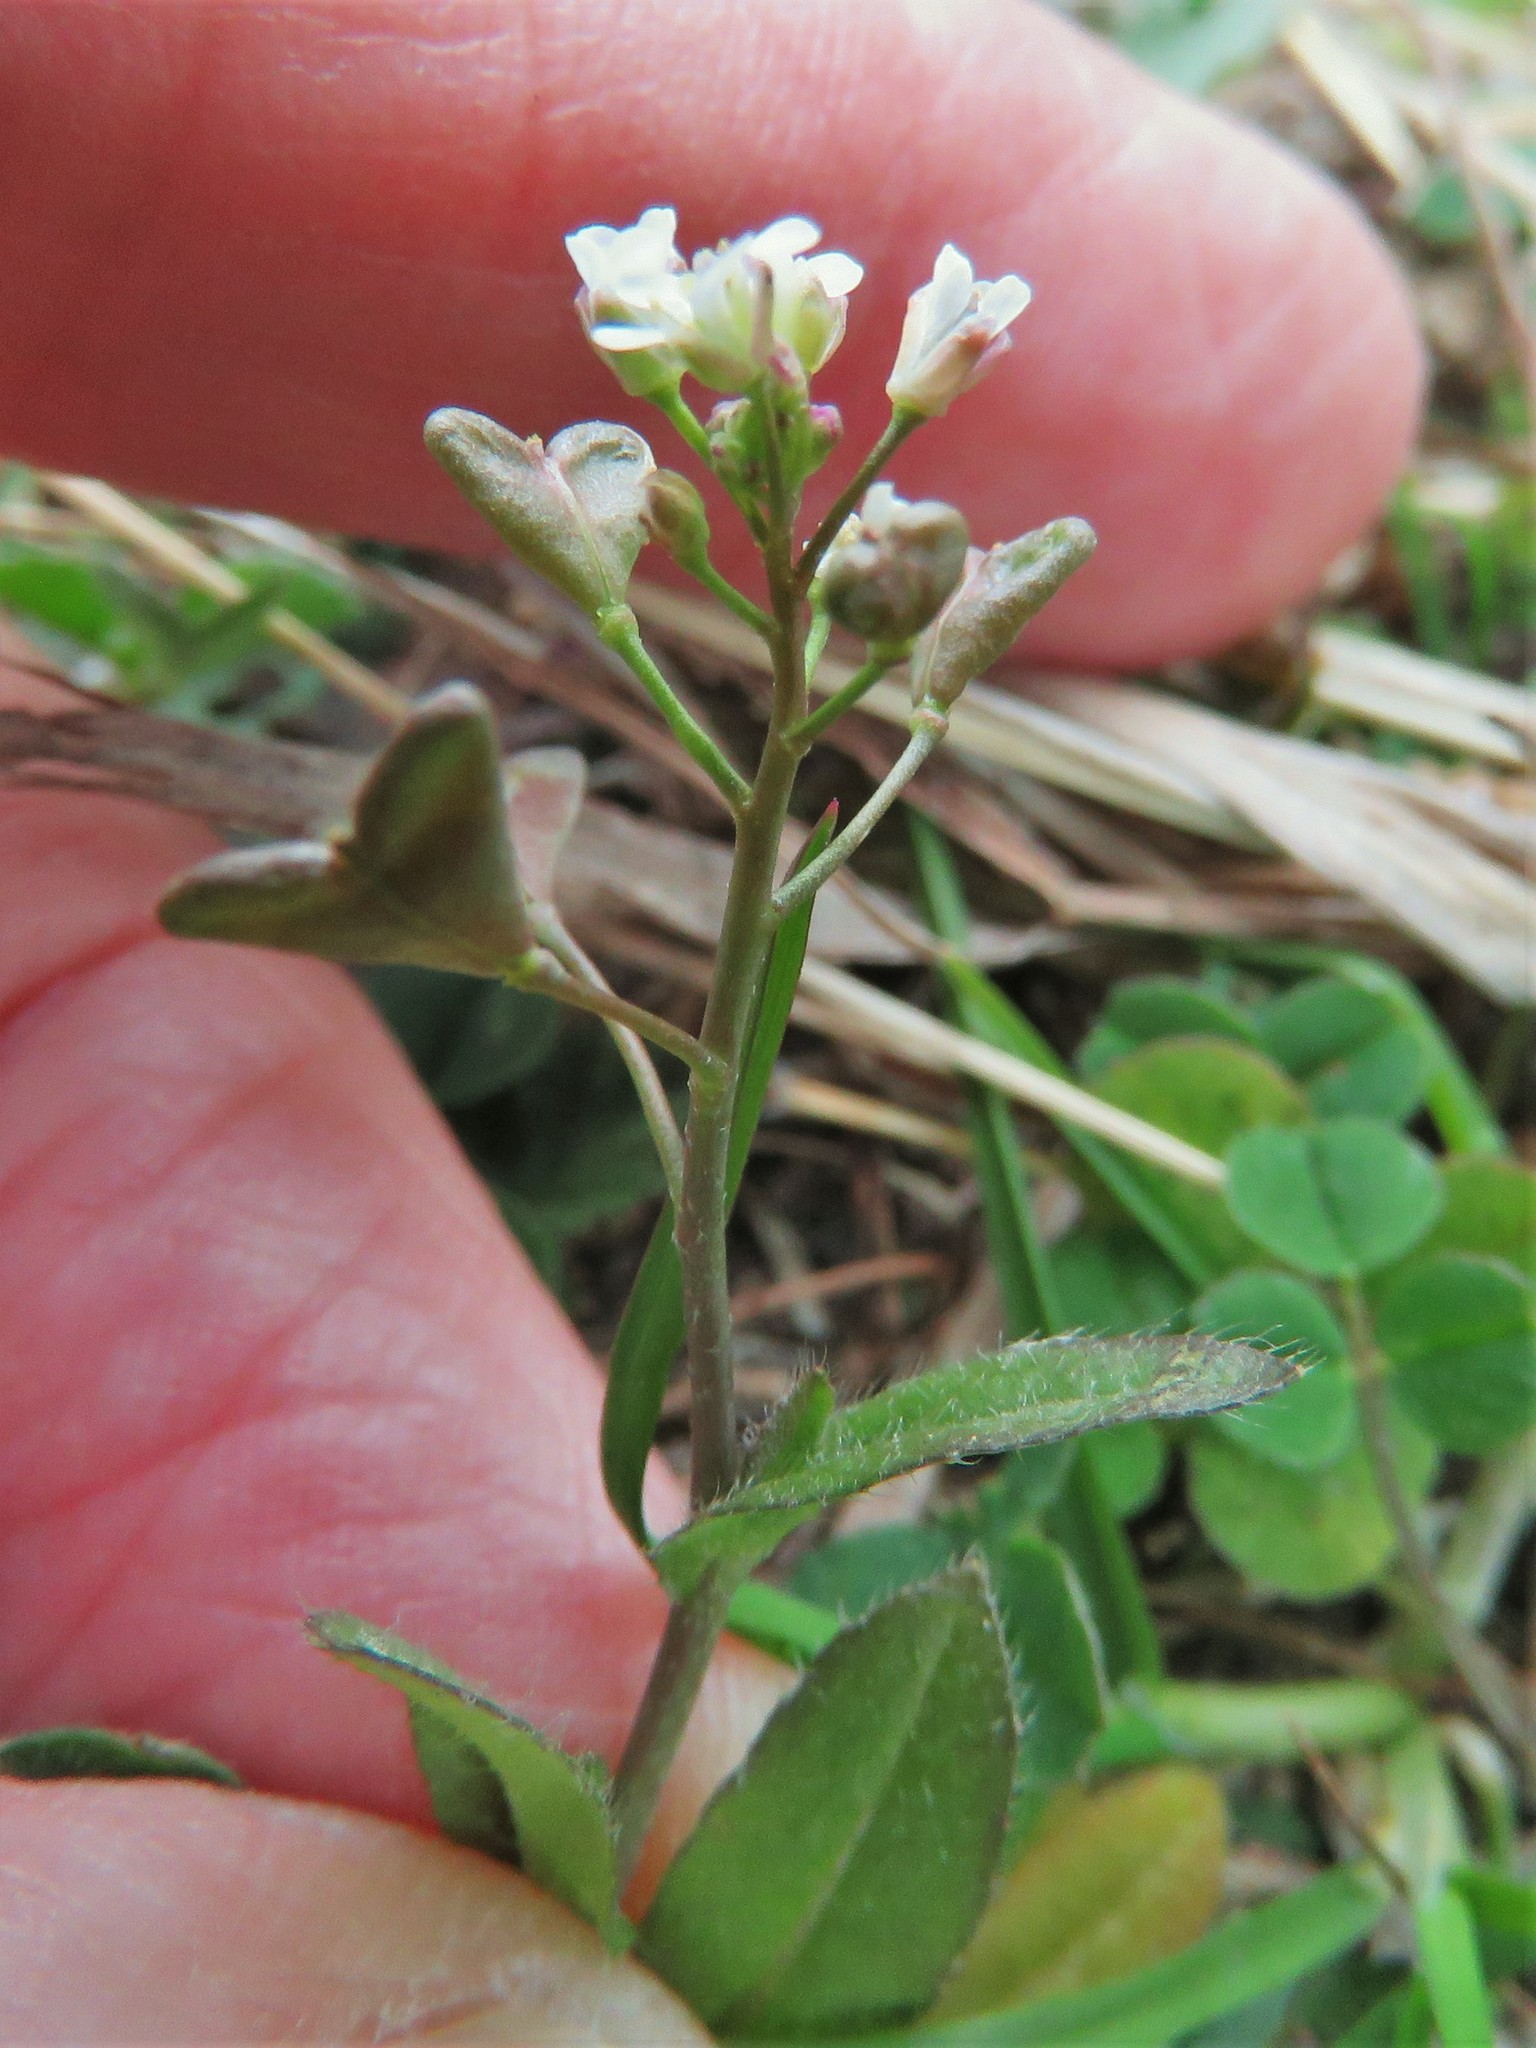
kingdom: Plantae
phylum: Tracheophyta
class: Magnoliopsida
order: Brassicales
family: Brassicaceae
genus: Capsella
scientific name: Capsella bursa-pastoris
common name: Shepherd's purse
